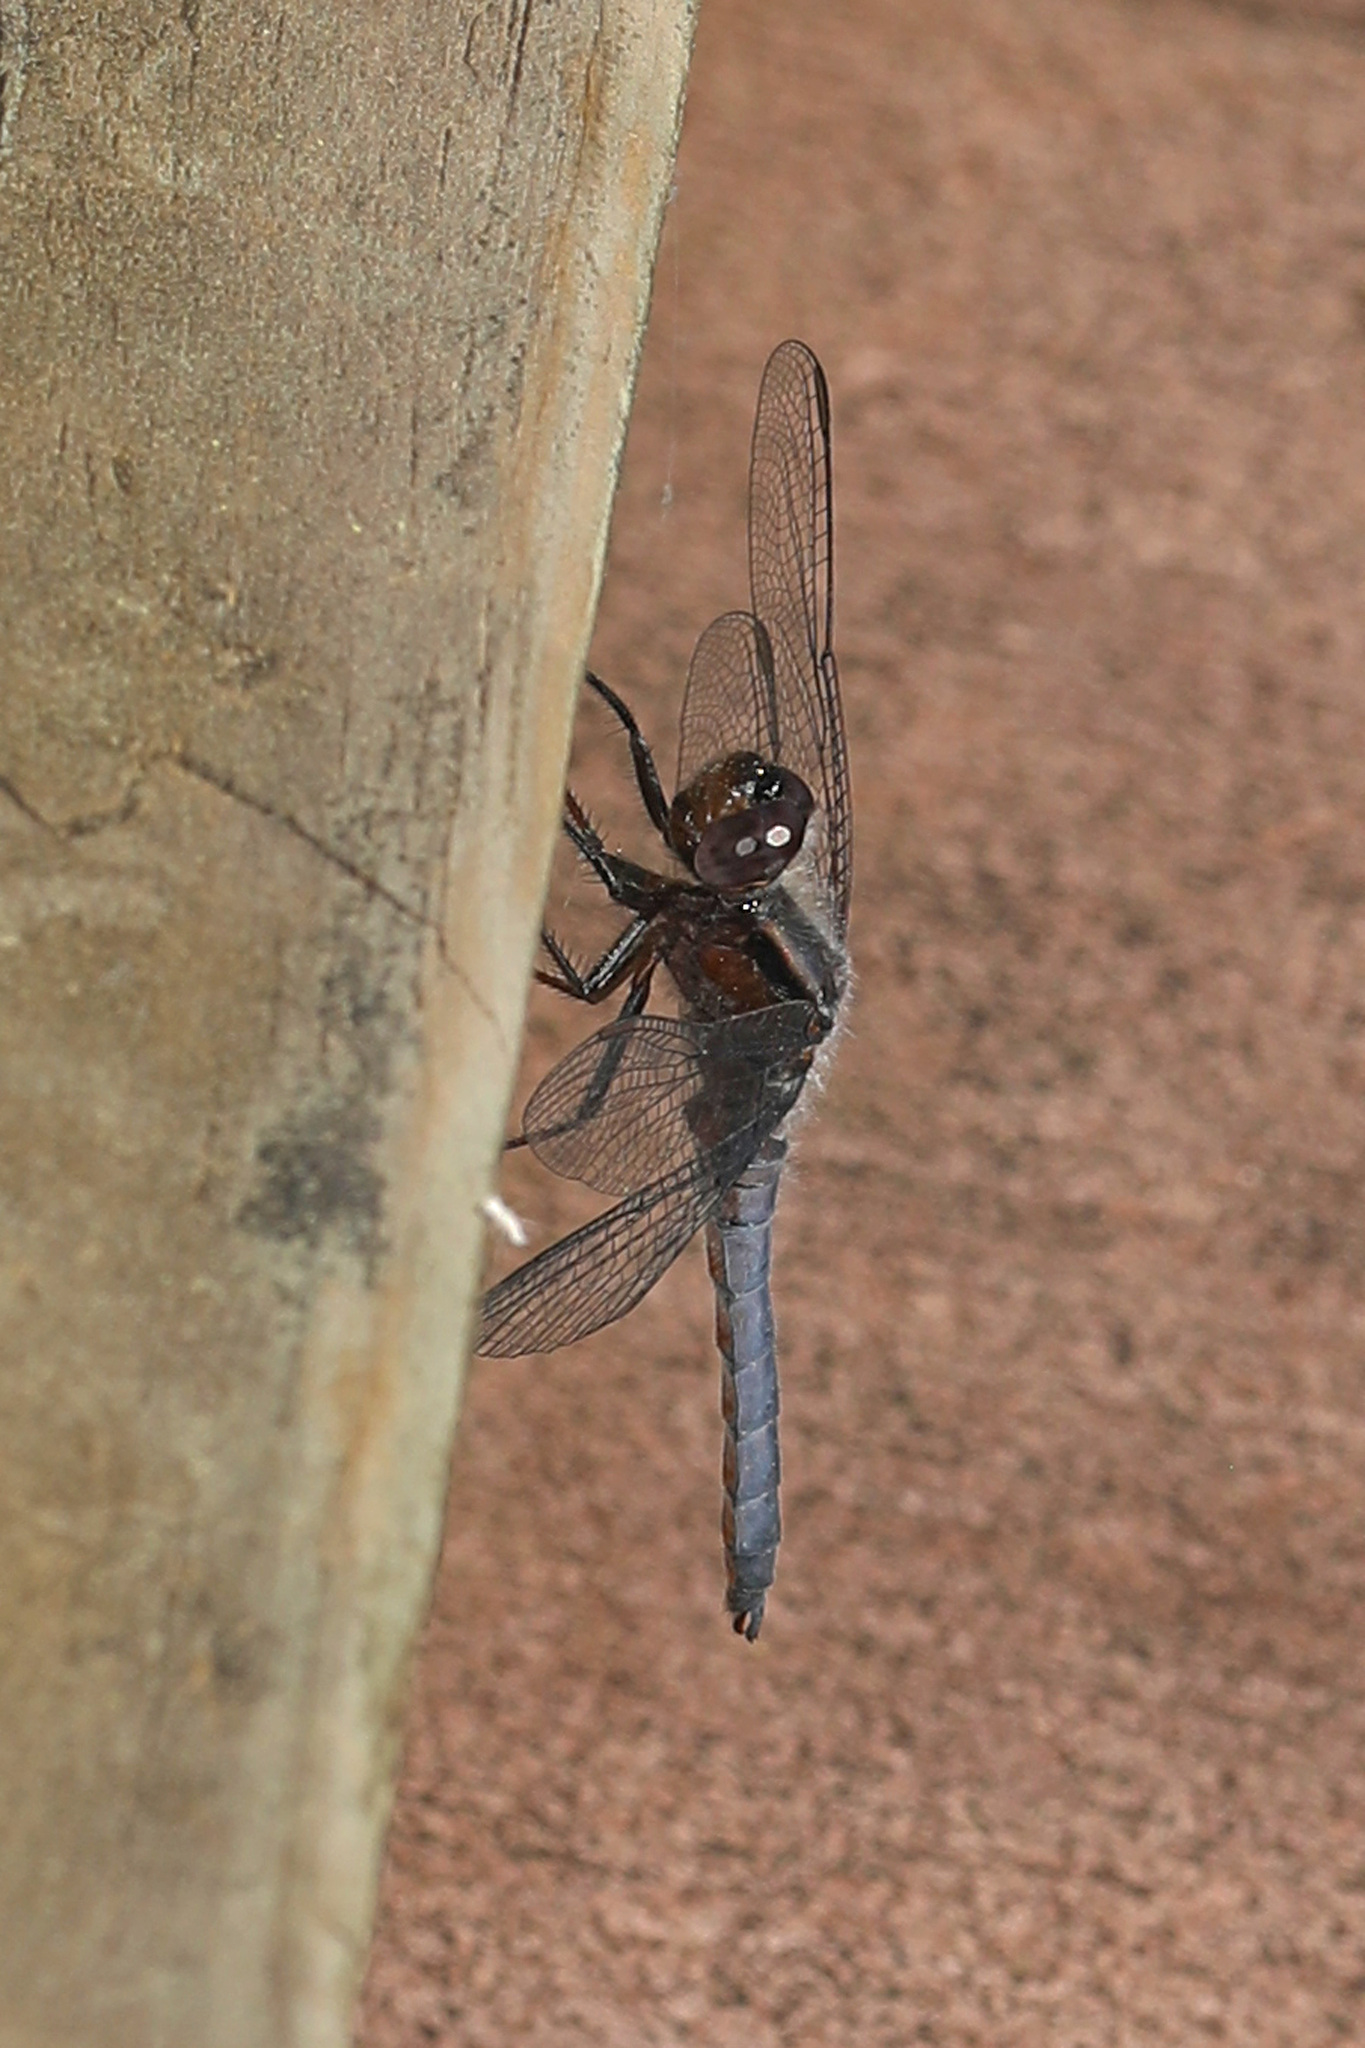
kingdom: Animalia
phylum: Arthropoda
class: Insecta
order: Odonata
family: Libellulidae
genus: Ladona
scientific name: Ladona deplanata
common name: Blue corporal
